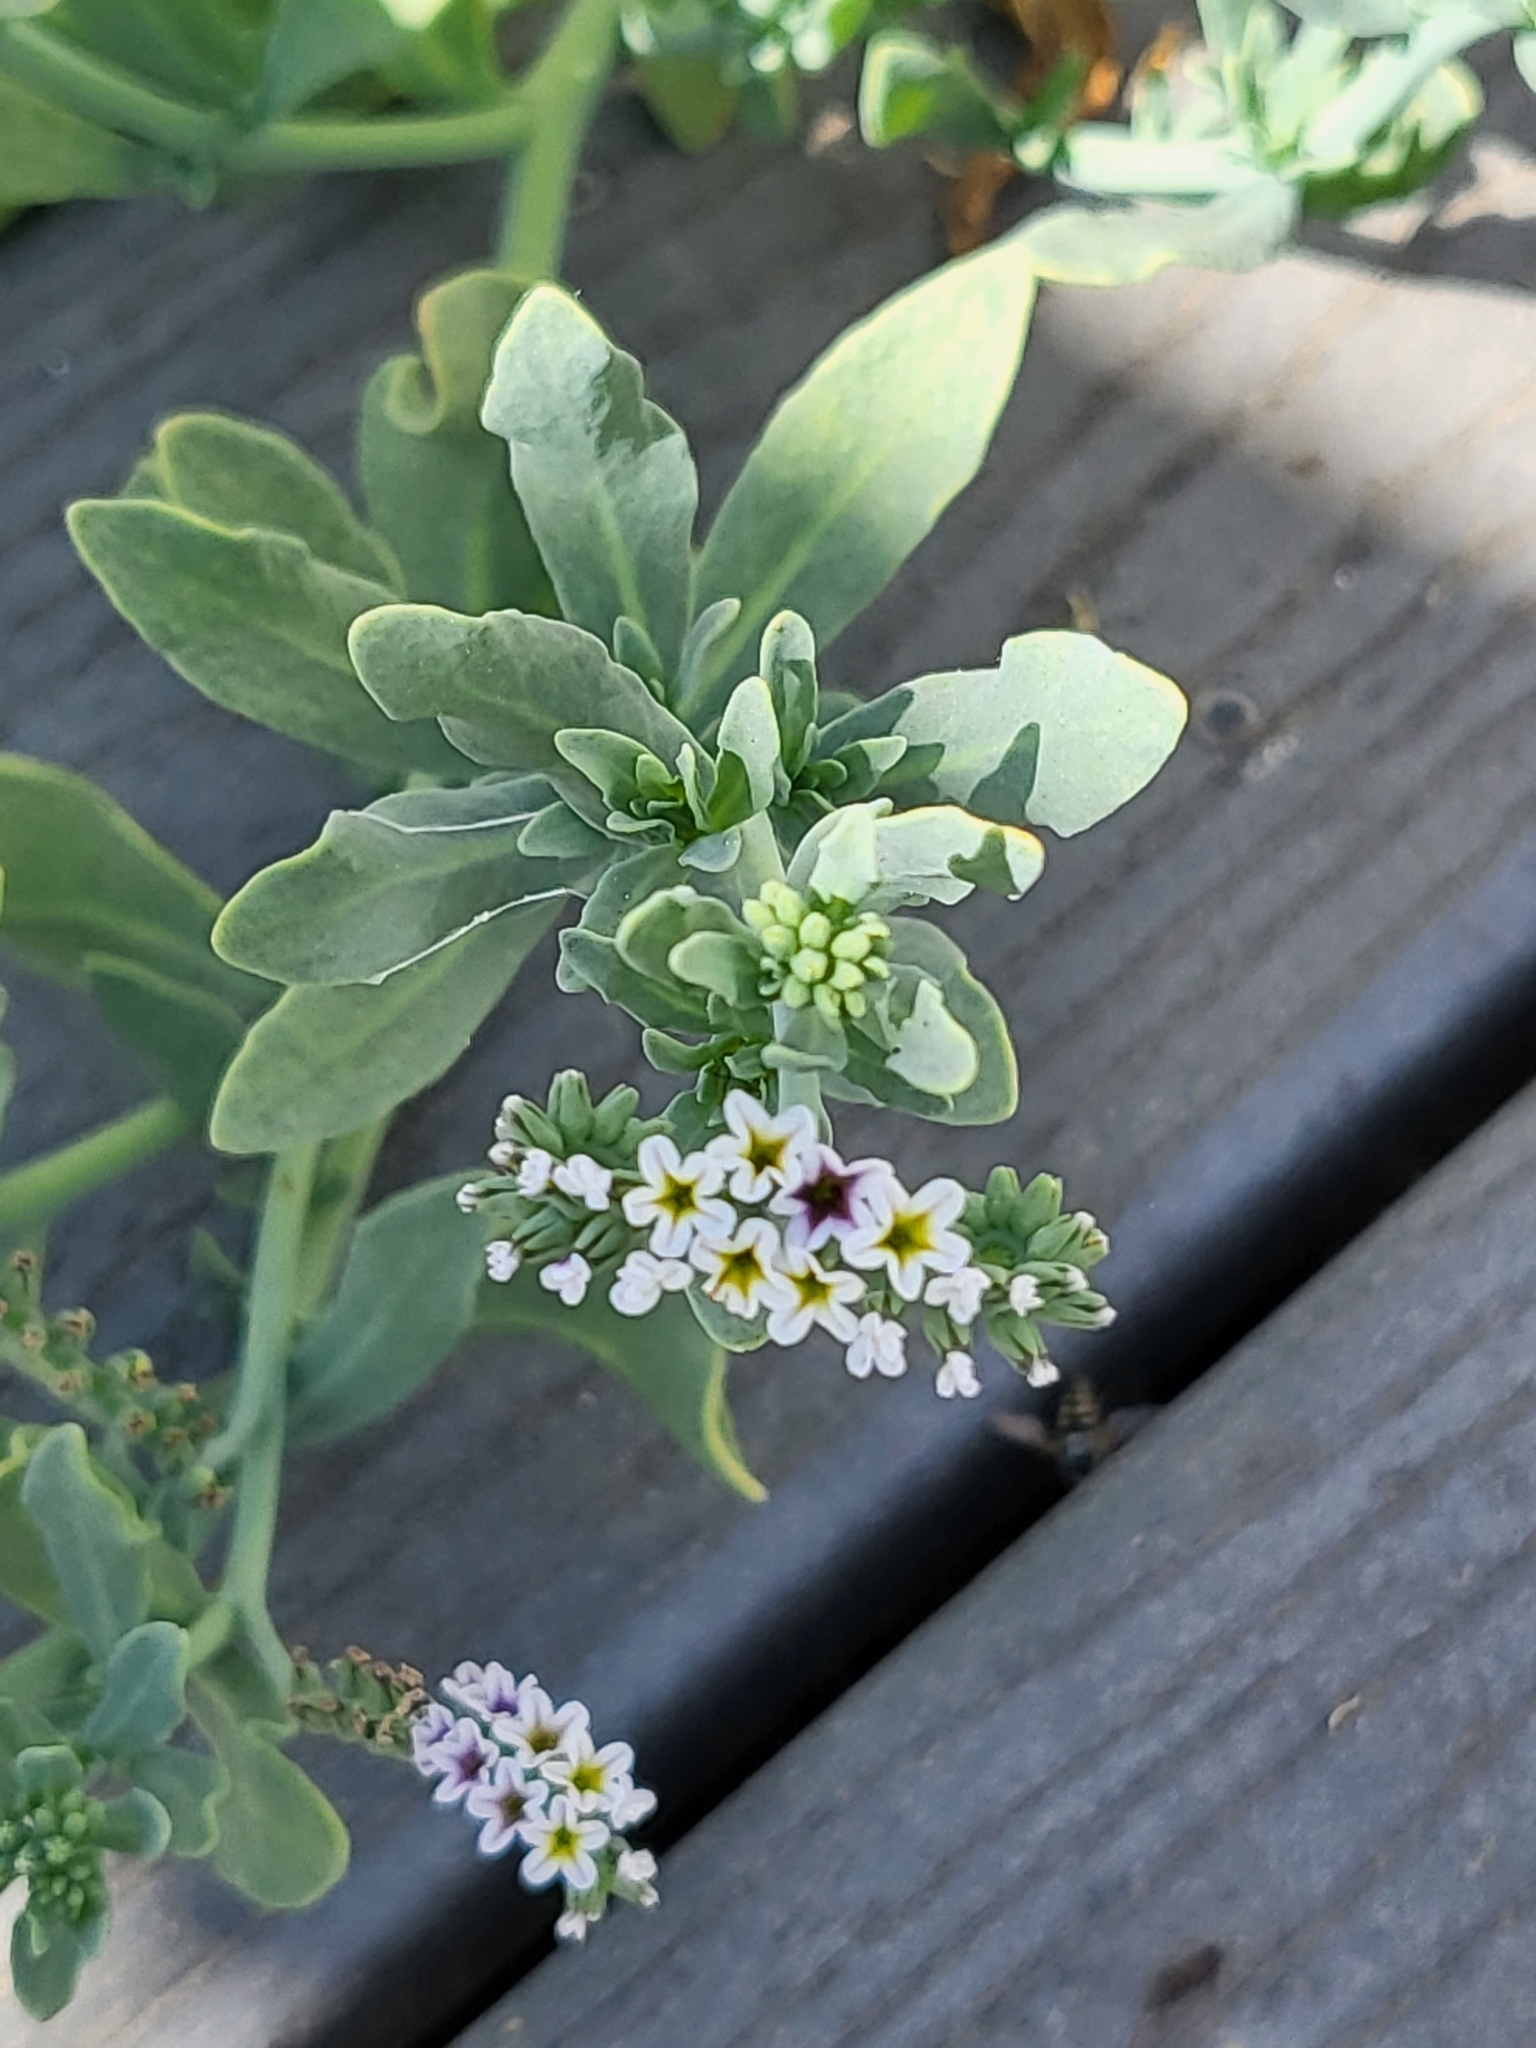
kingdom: Plantae
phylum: Tracheophyta
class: Magnoliopsida
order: Boraginales
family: Heliotropiaceae
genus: Heliotropium
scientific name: Heliotropium curassavicum
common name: Seaside heliotrope
